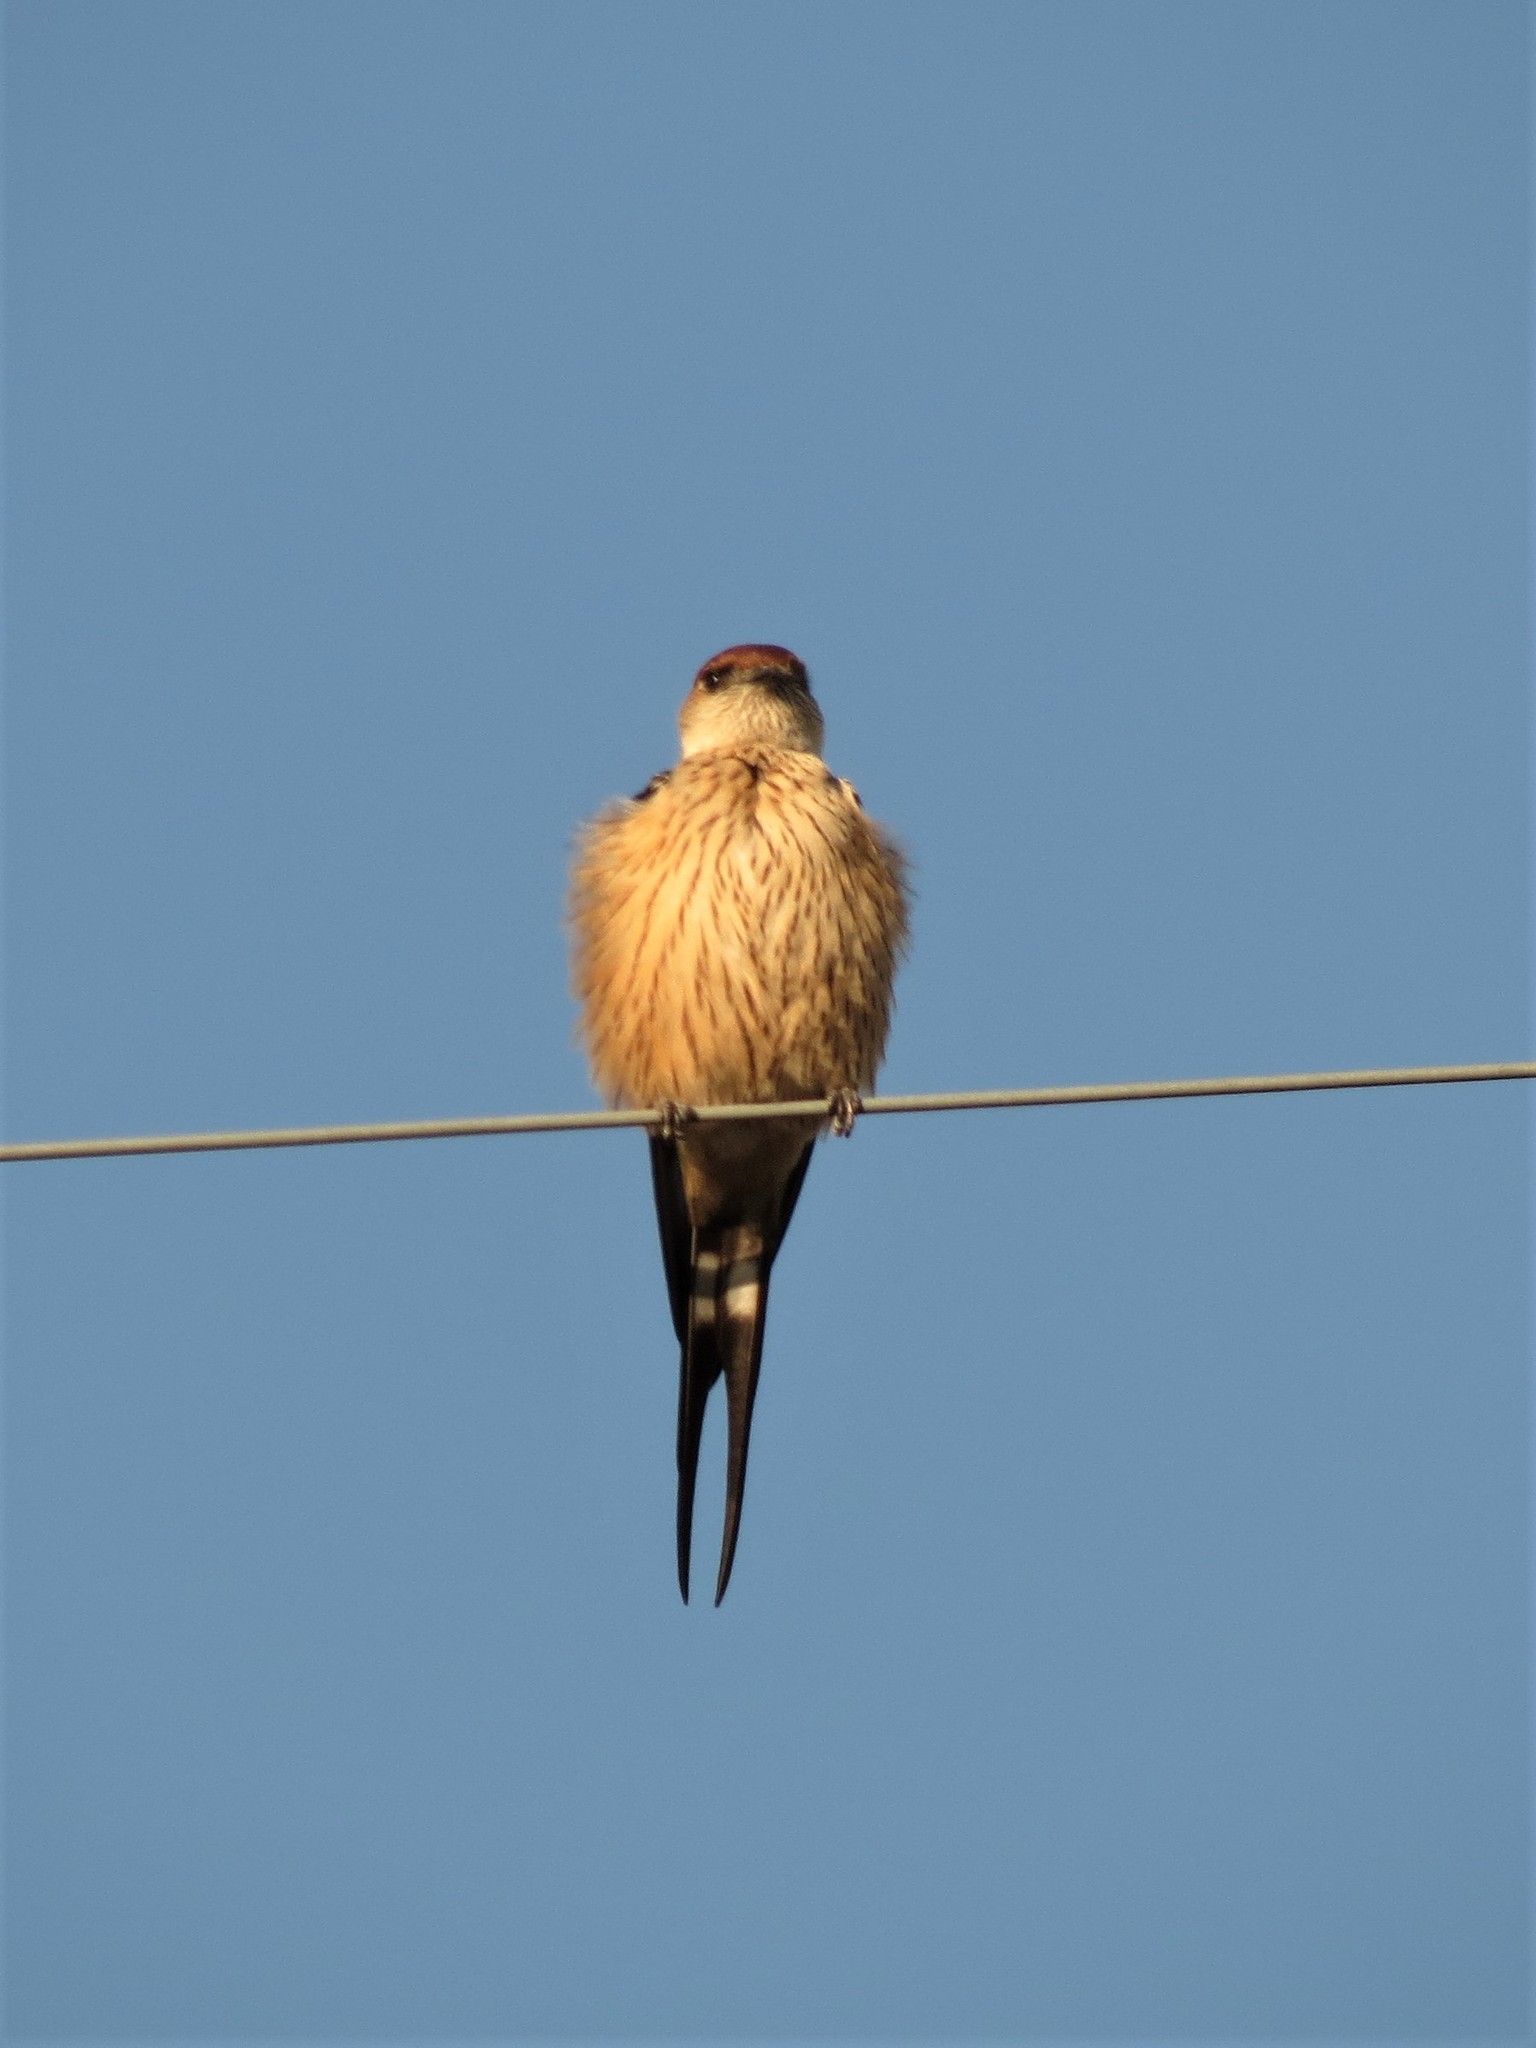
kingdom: Animalia
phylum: Chordata
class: Aves
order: Passeriformes
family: Hirundinidae
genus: Cecropis
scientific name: Cecropis cucullata
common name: Greater striped-swallow
